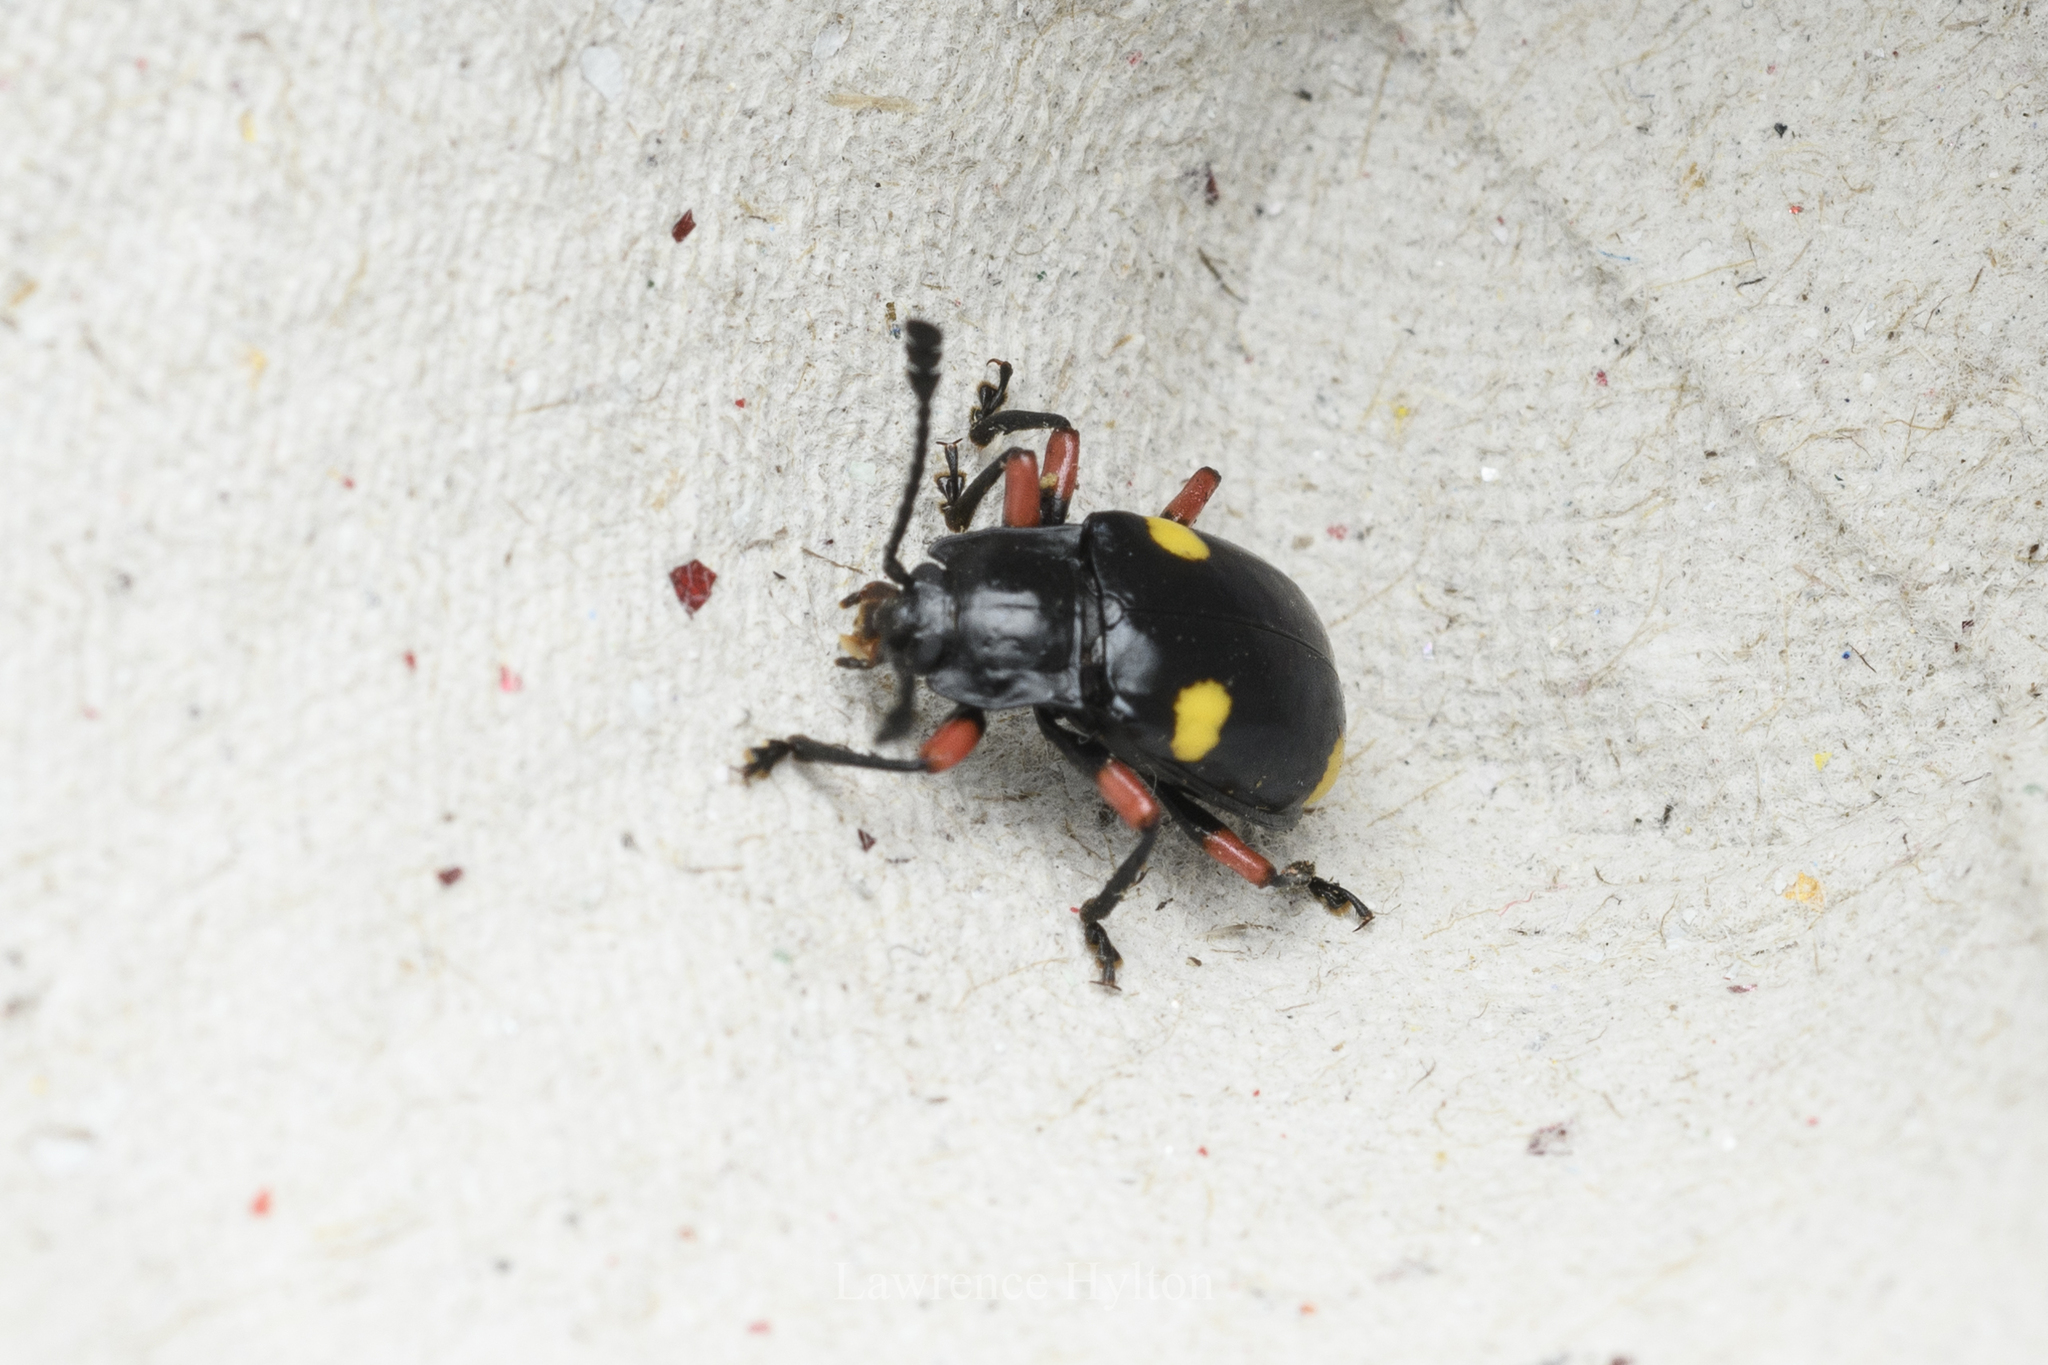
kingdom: Animalia
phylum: Arthropoda
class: Insecta
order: Coleoptera
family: Endomychidae
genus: Eumorphus
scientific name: Eumorphus quadriguttatus
